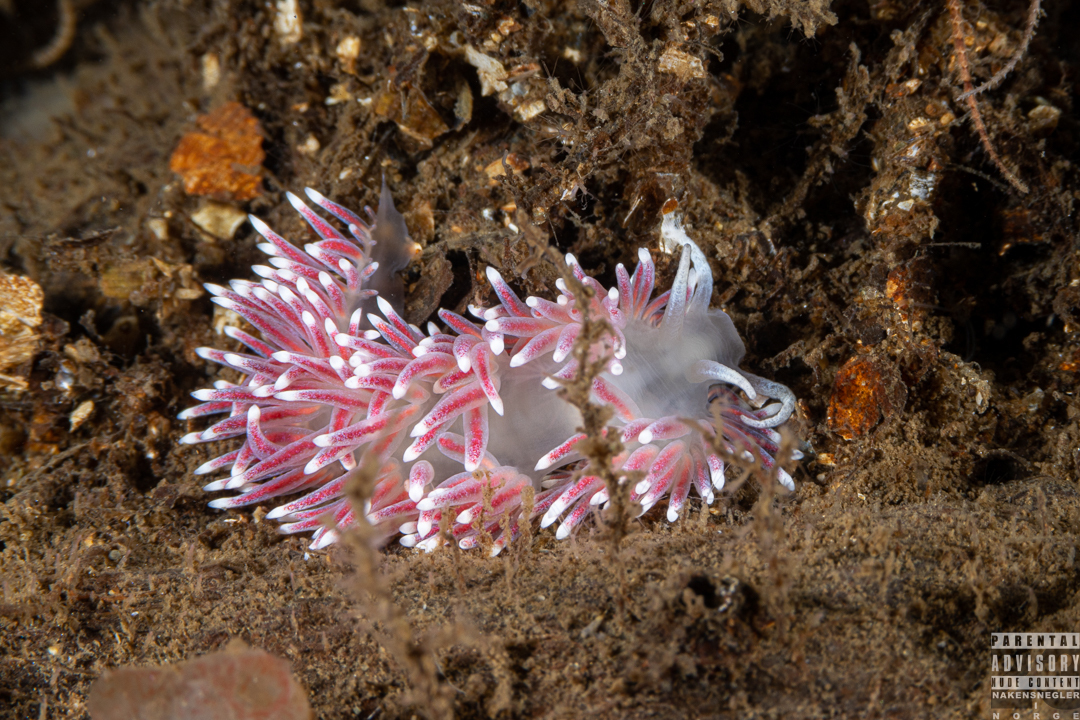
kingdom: Animalia
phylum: Mollusca
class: Gastropoda
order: Nudibranchia
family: Flabellinidae
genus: Carronella
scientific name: Carronella pellucida
